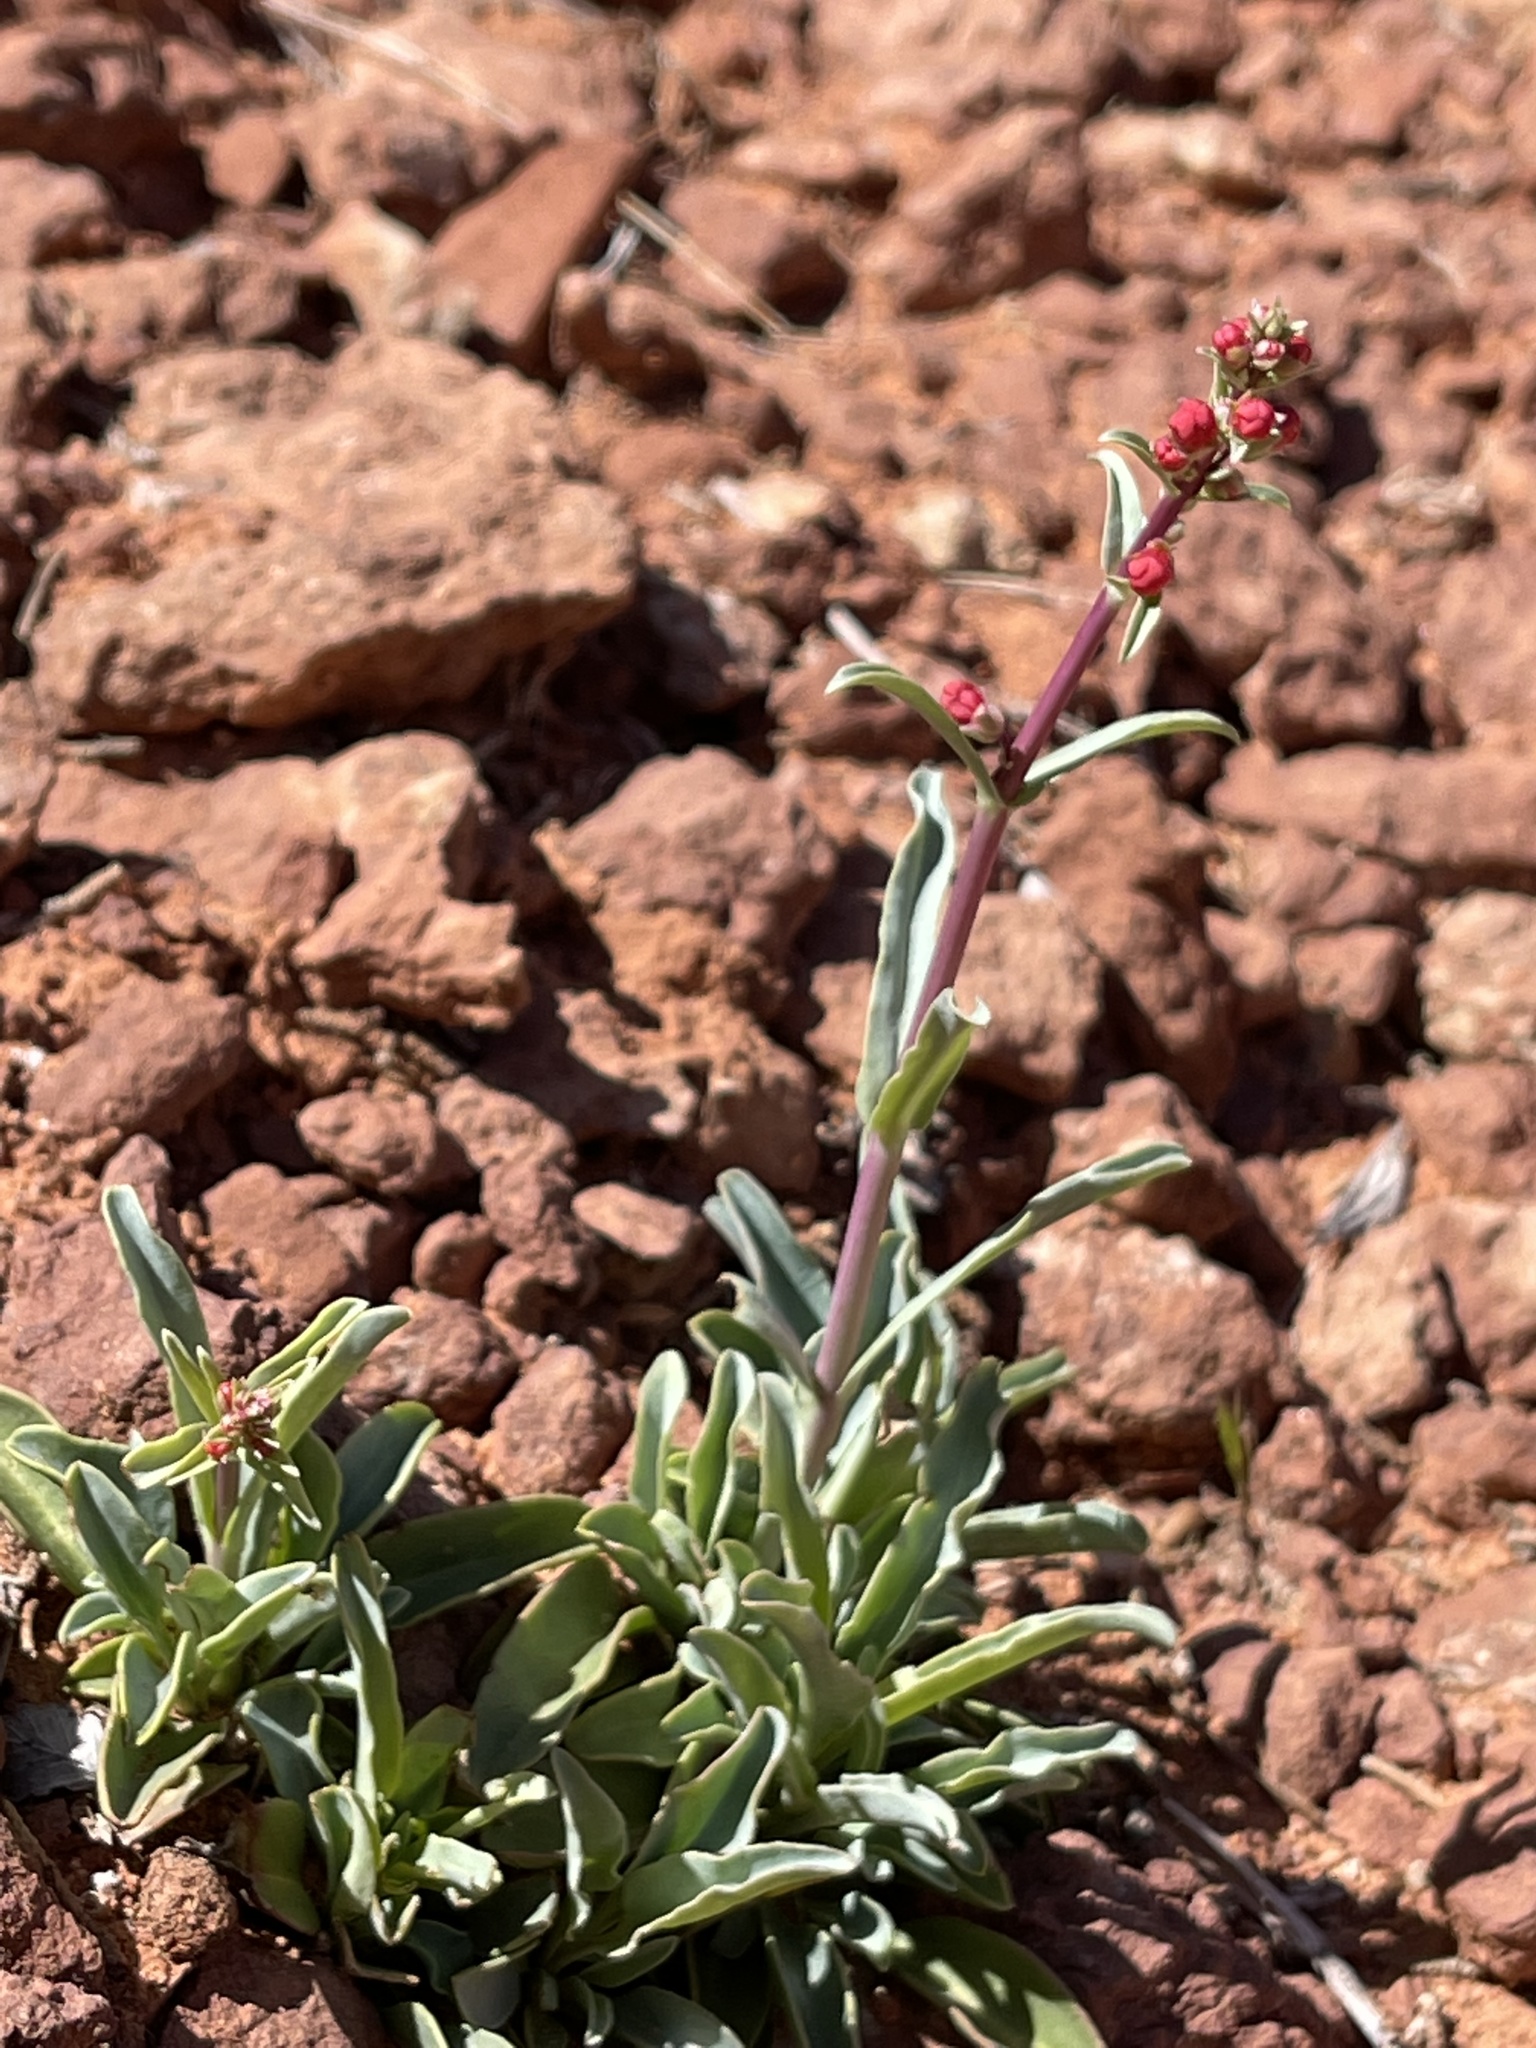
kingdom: Plantae
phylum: Tracheophyta
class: Magnoliopsida
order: Lamiales
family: Plantaginaceae
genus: Penstemon
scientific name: Penstemon utahensis
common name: Utah penstemon
